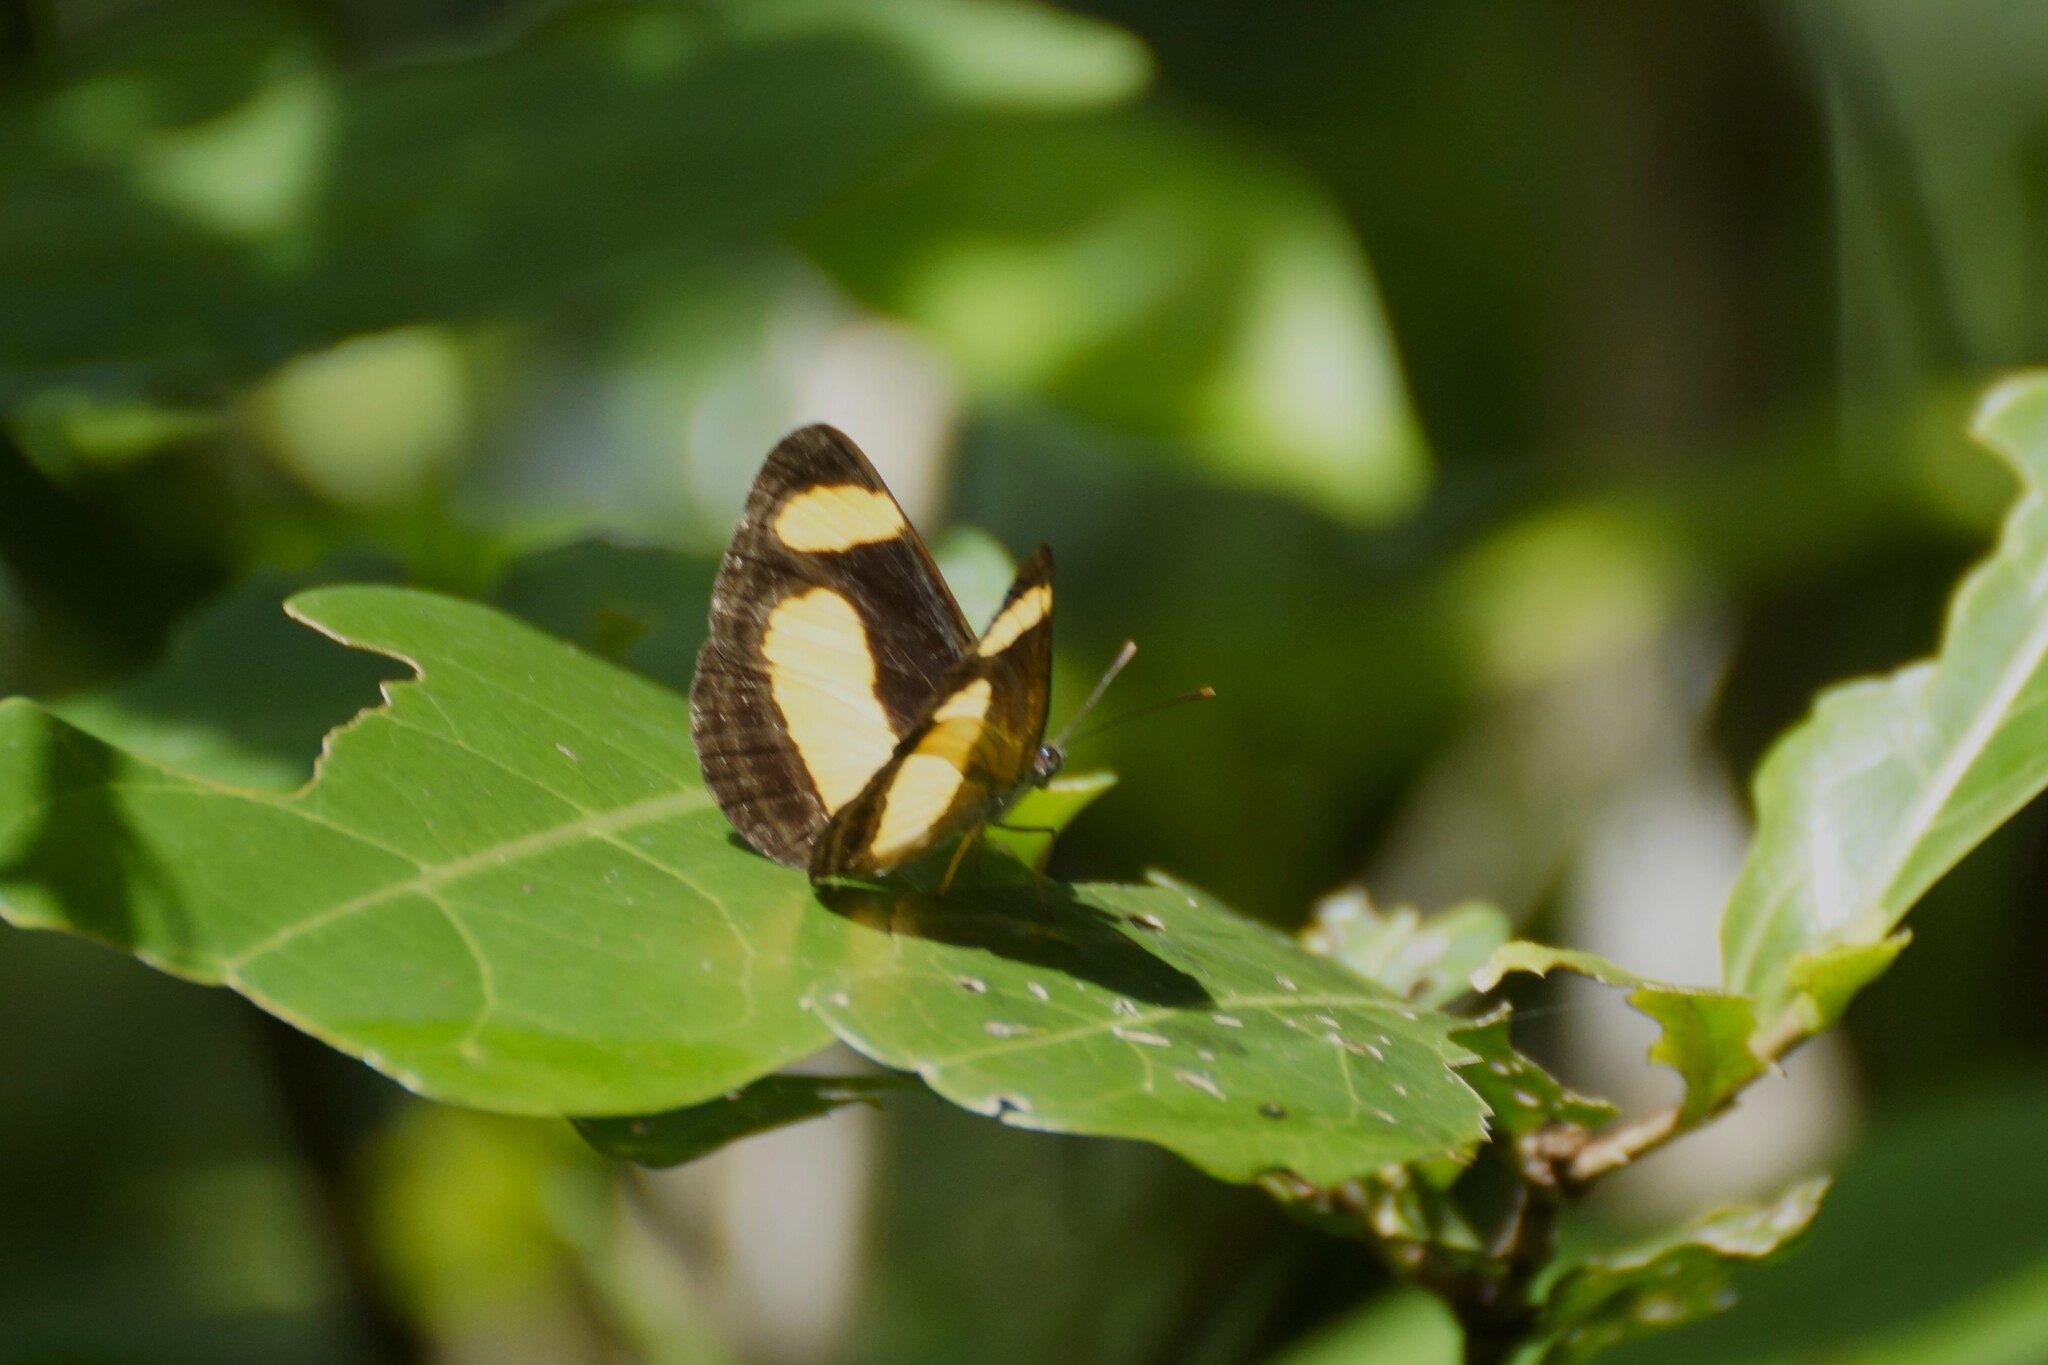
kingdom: Animalia
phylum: Arthropoda
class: Insecta
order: Lepidoptera
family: Nymphalidae
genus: Pantoporia
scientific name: Pantoporia consimilis
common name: Orange plane
